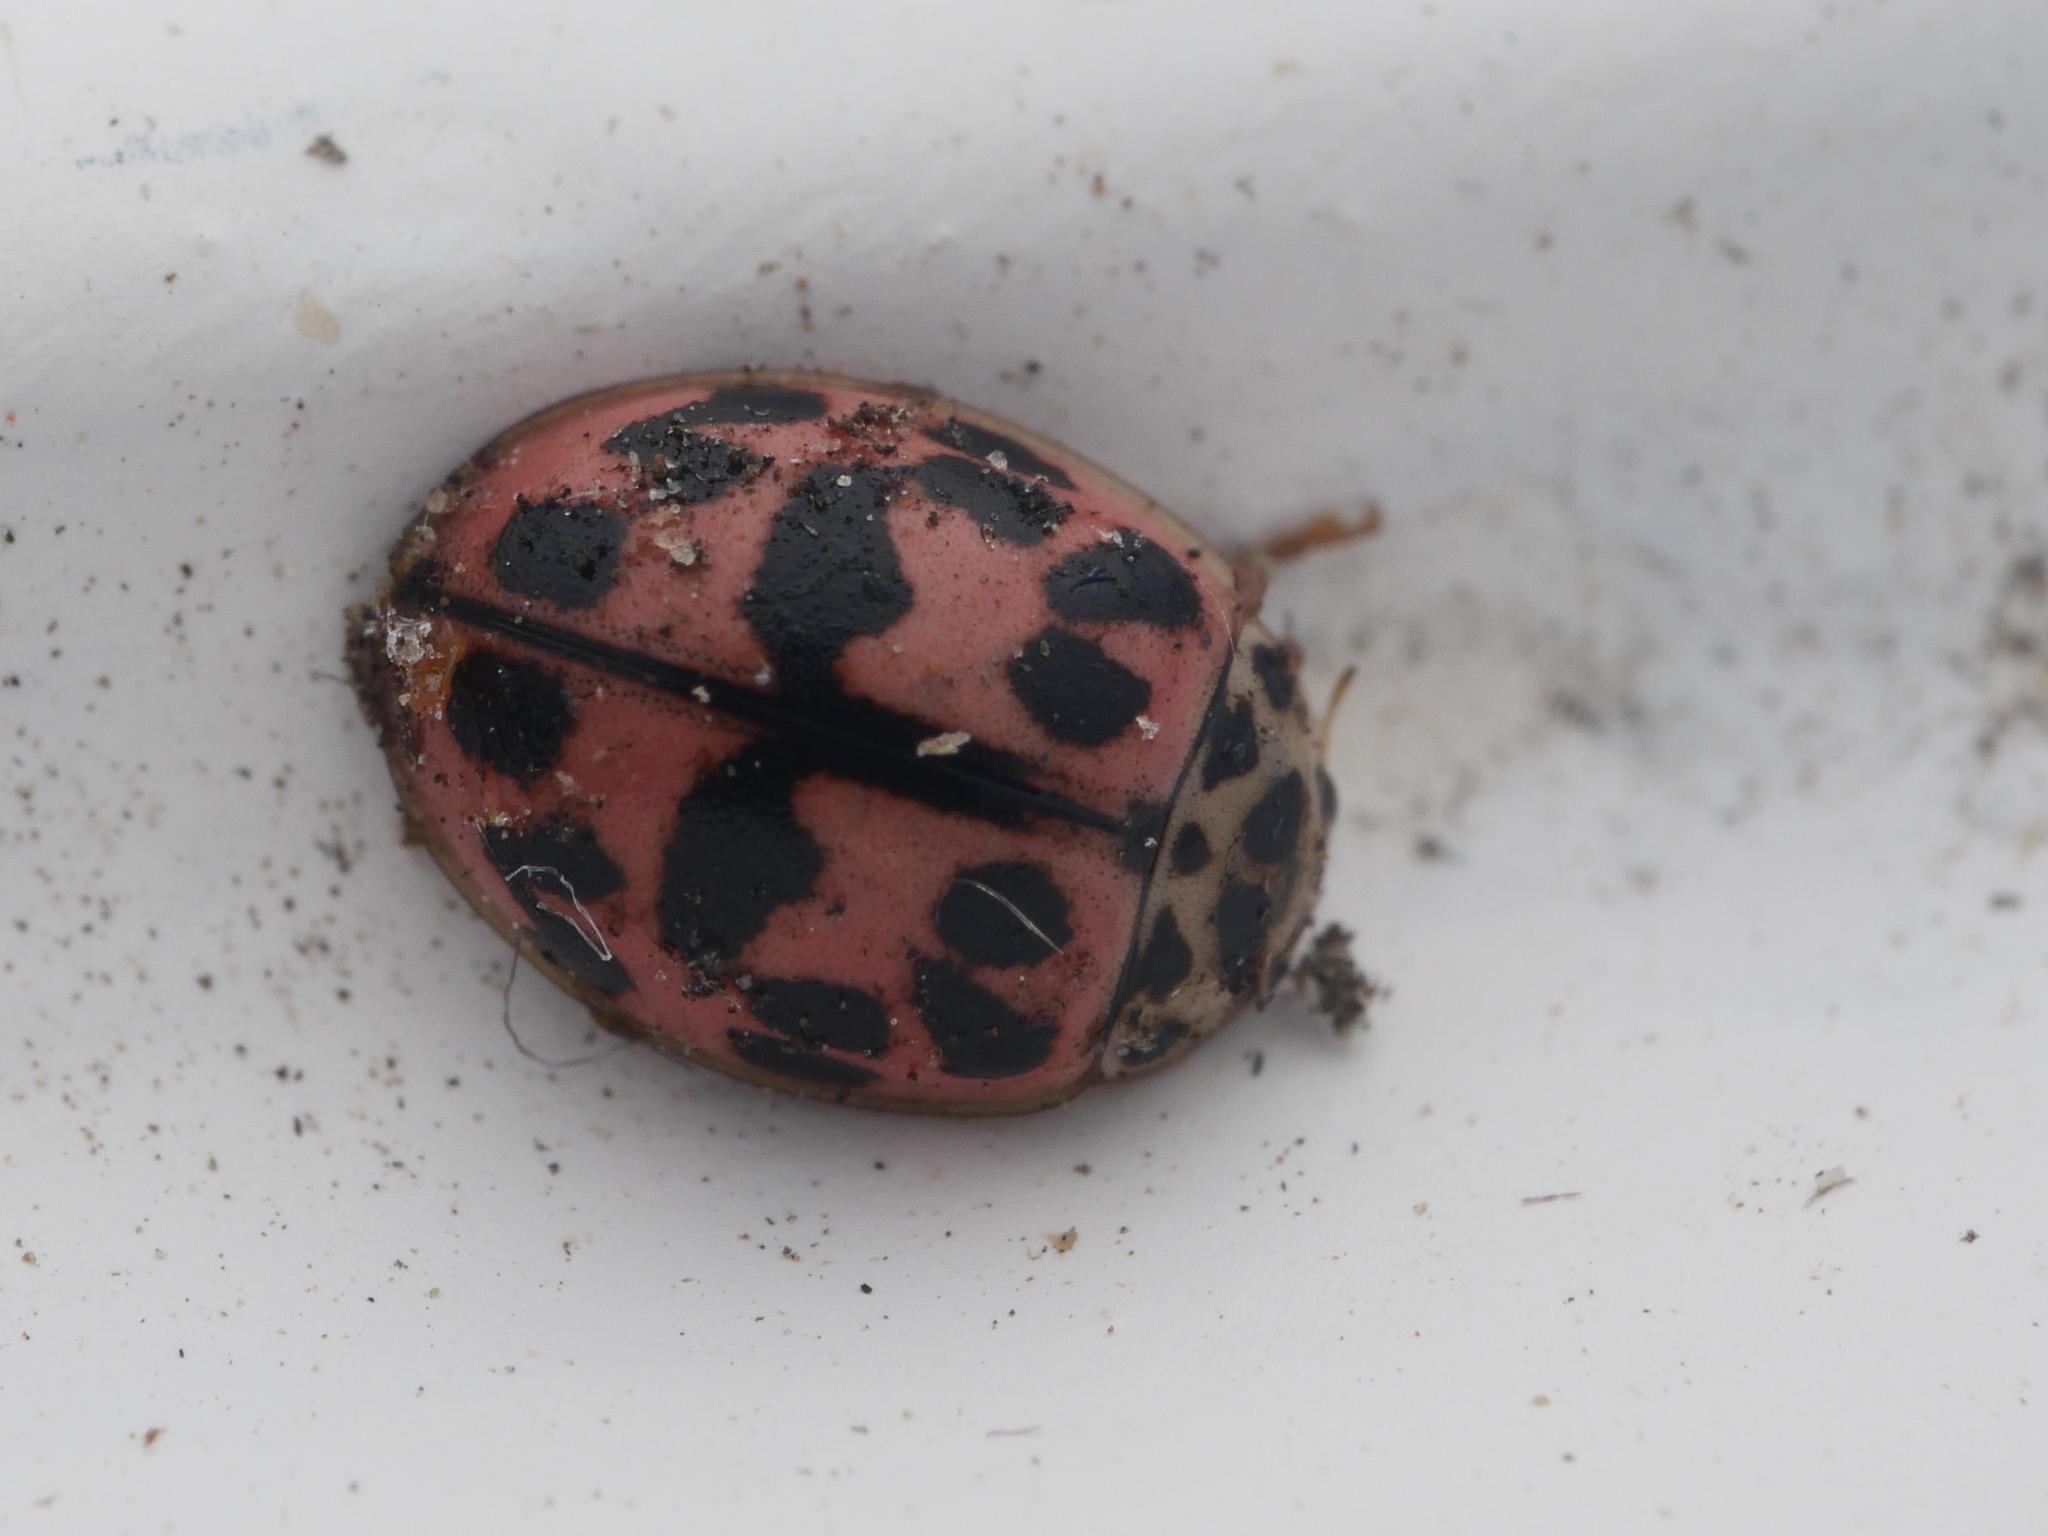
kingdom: Animalia
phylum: Arthropoda
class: Insecta
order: Coleoptera
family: Coccinellidae
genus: Oenopia
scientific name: Oenopia conglobata
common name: Ladybird beetle
